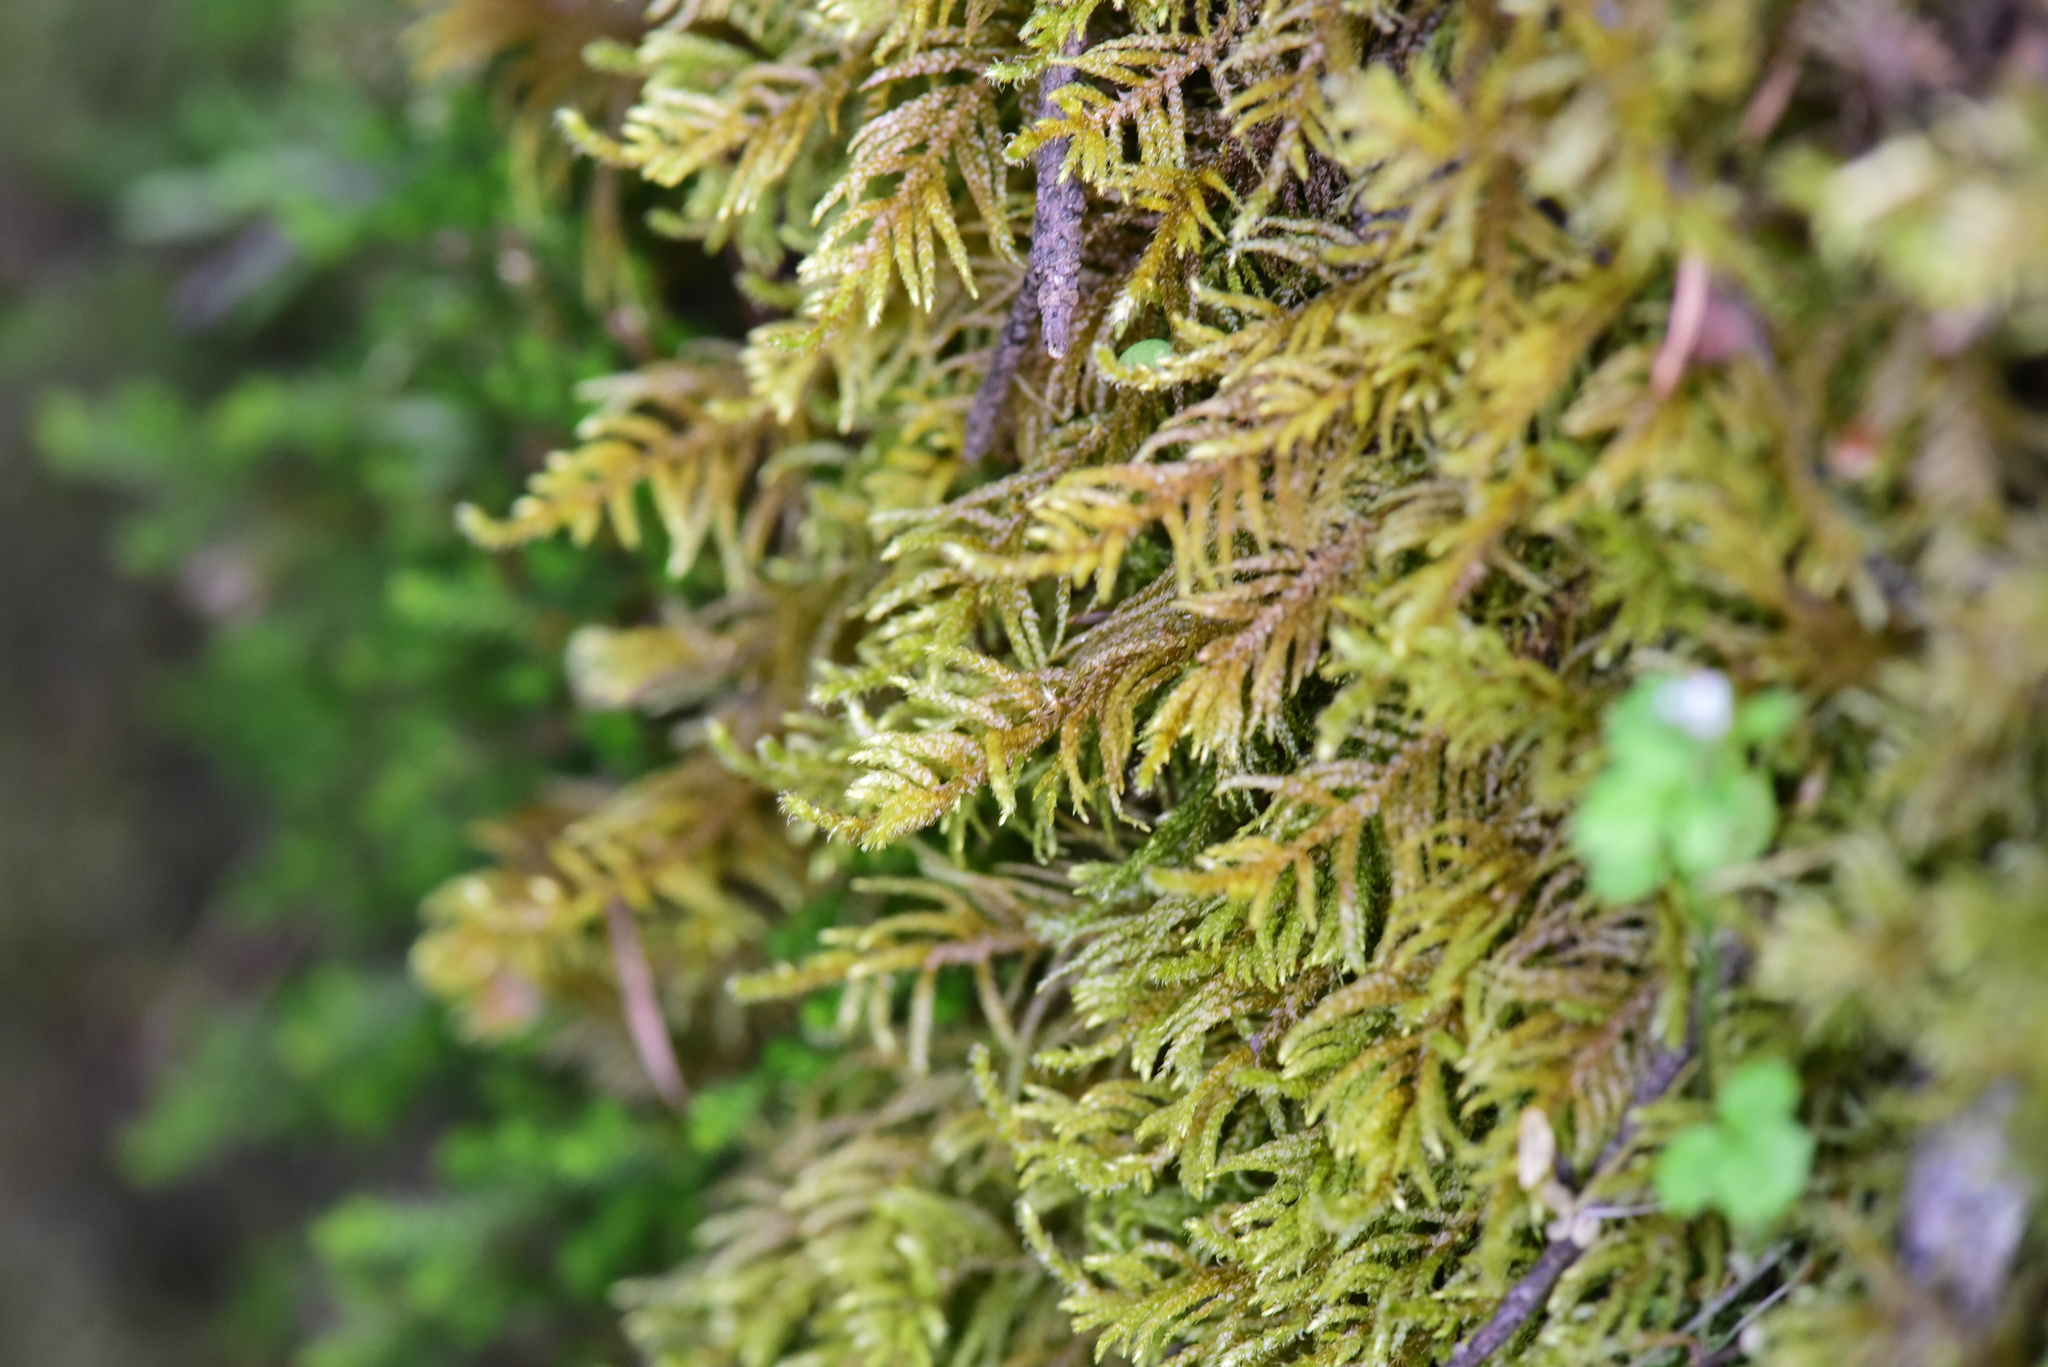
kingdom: Plantae
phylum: Bryophyta
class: Bryopsida
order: Hypnales
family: Brachytheciaceae
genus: Kindbergia
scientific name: Kindbergia oregana
